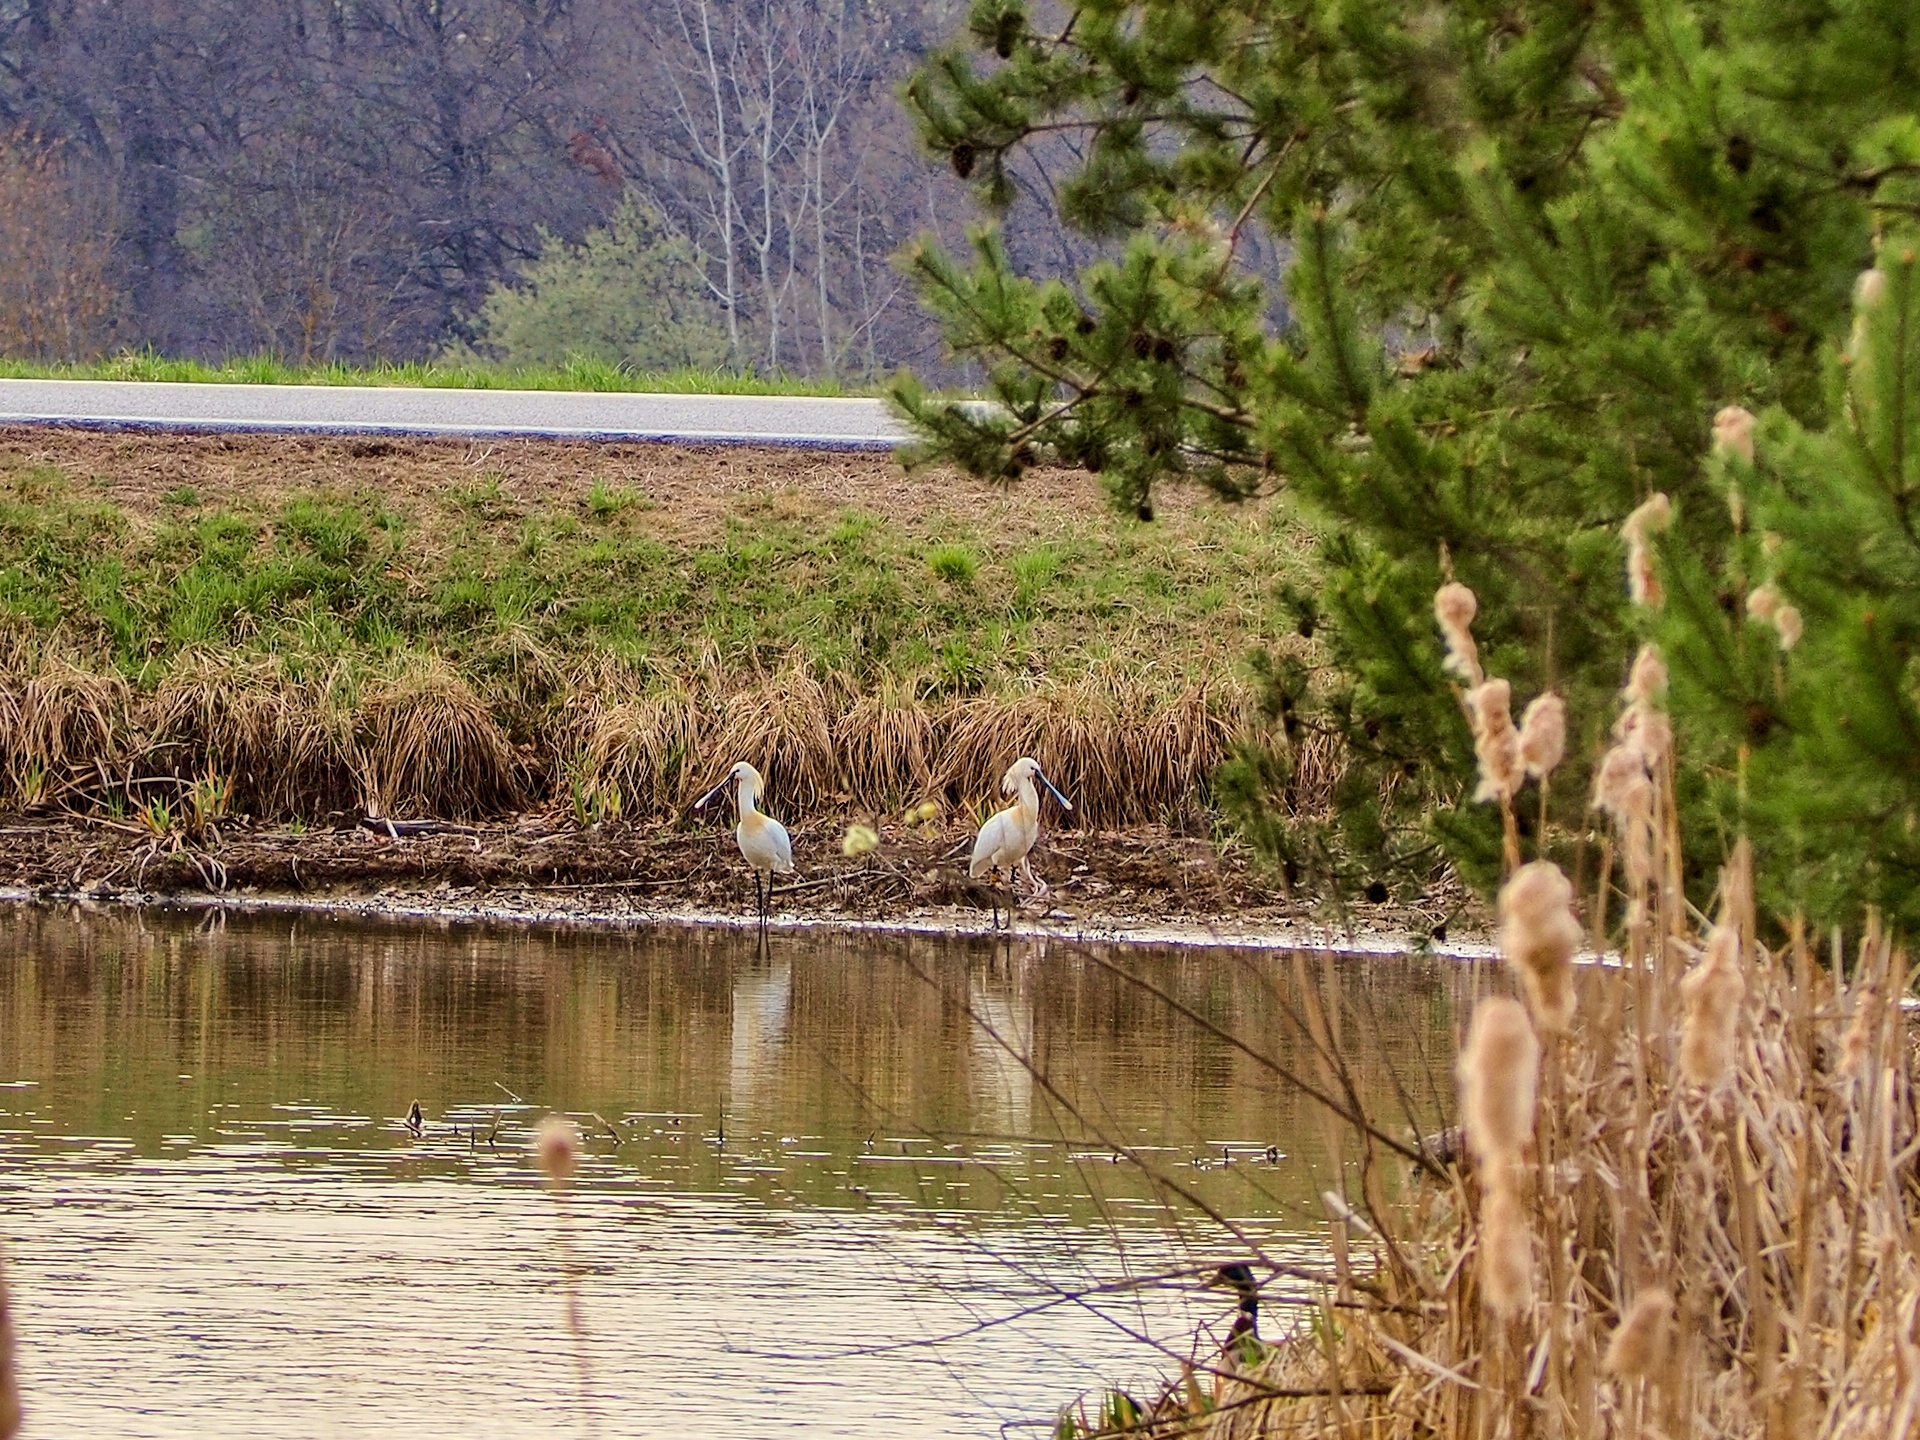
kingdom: Animalia
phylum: Chordata
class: Aves
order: Pelecaniformes
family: Threskiornithidae
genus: Platalea
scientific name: Platalea leucorodia
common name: Eurasian spoonbill
